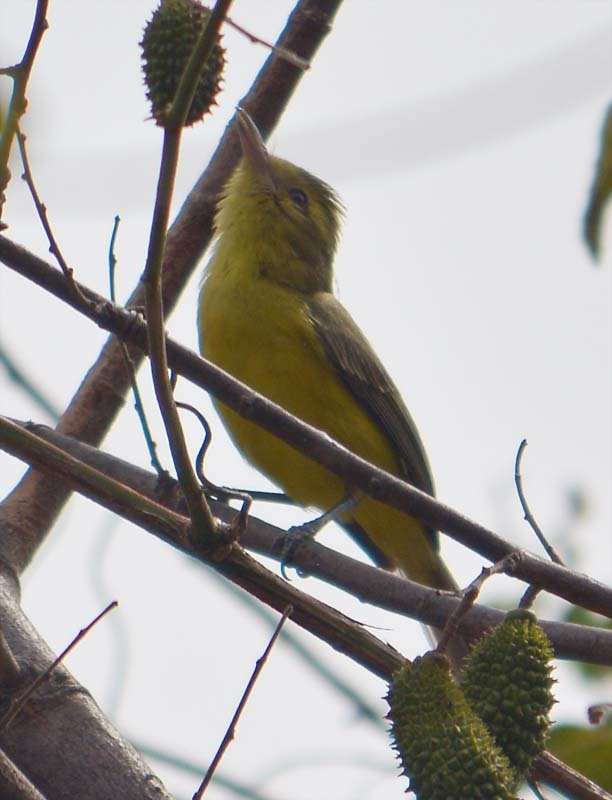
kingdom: Animalia
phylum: Chordata
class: Aves
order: Passeriformes
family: Vireonidae
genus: Vireo
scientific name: Vireo hypochryseus
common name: Golden vireo
